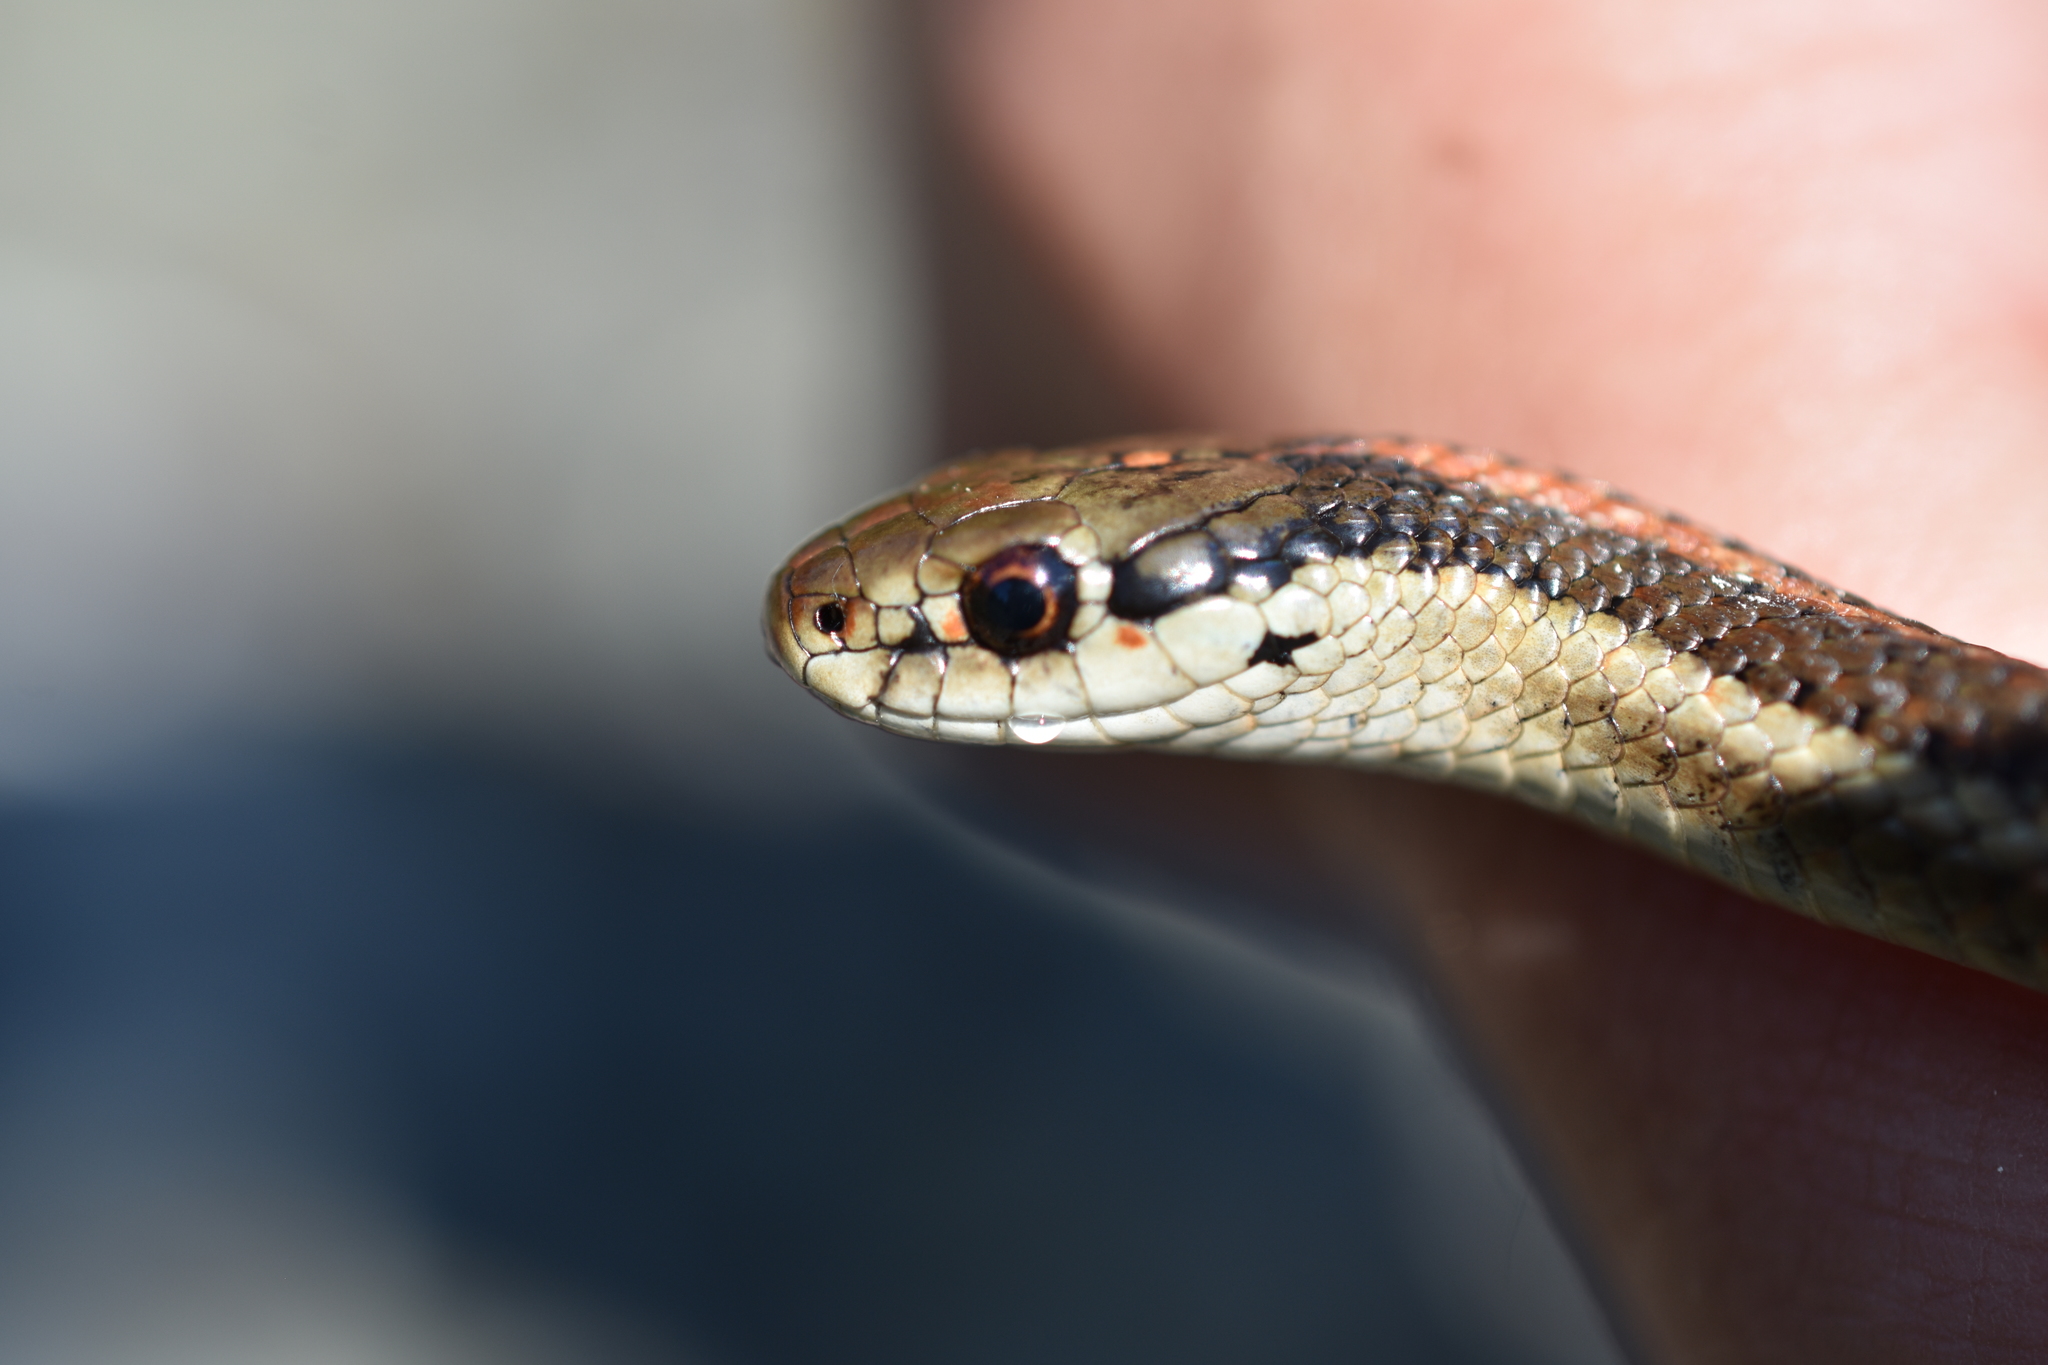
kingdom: Animalia
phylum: Chordata
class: Squamata
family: Colubridae
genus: Thamnophis
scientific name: Thamnophis ordinoides
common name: Northwestern garter snake
